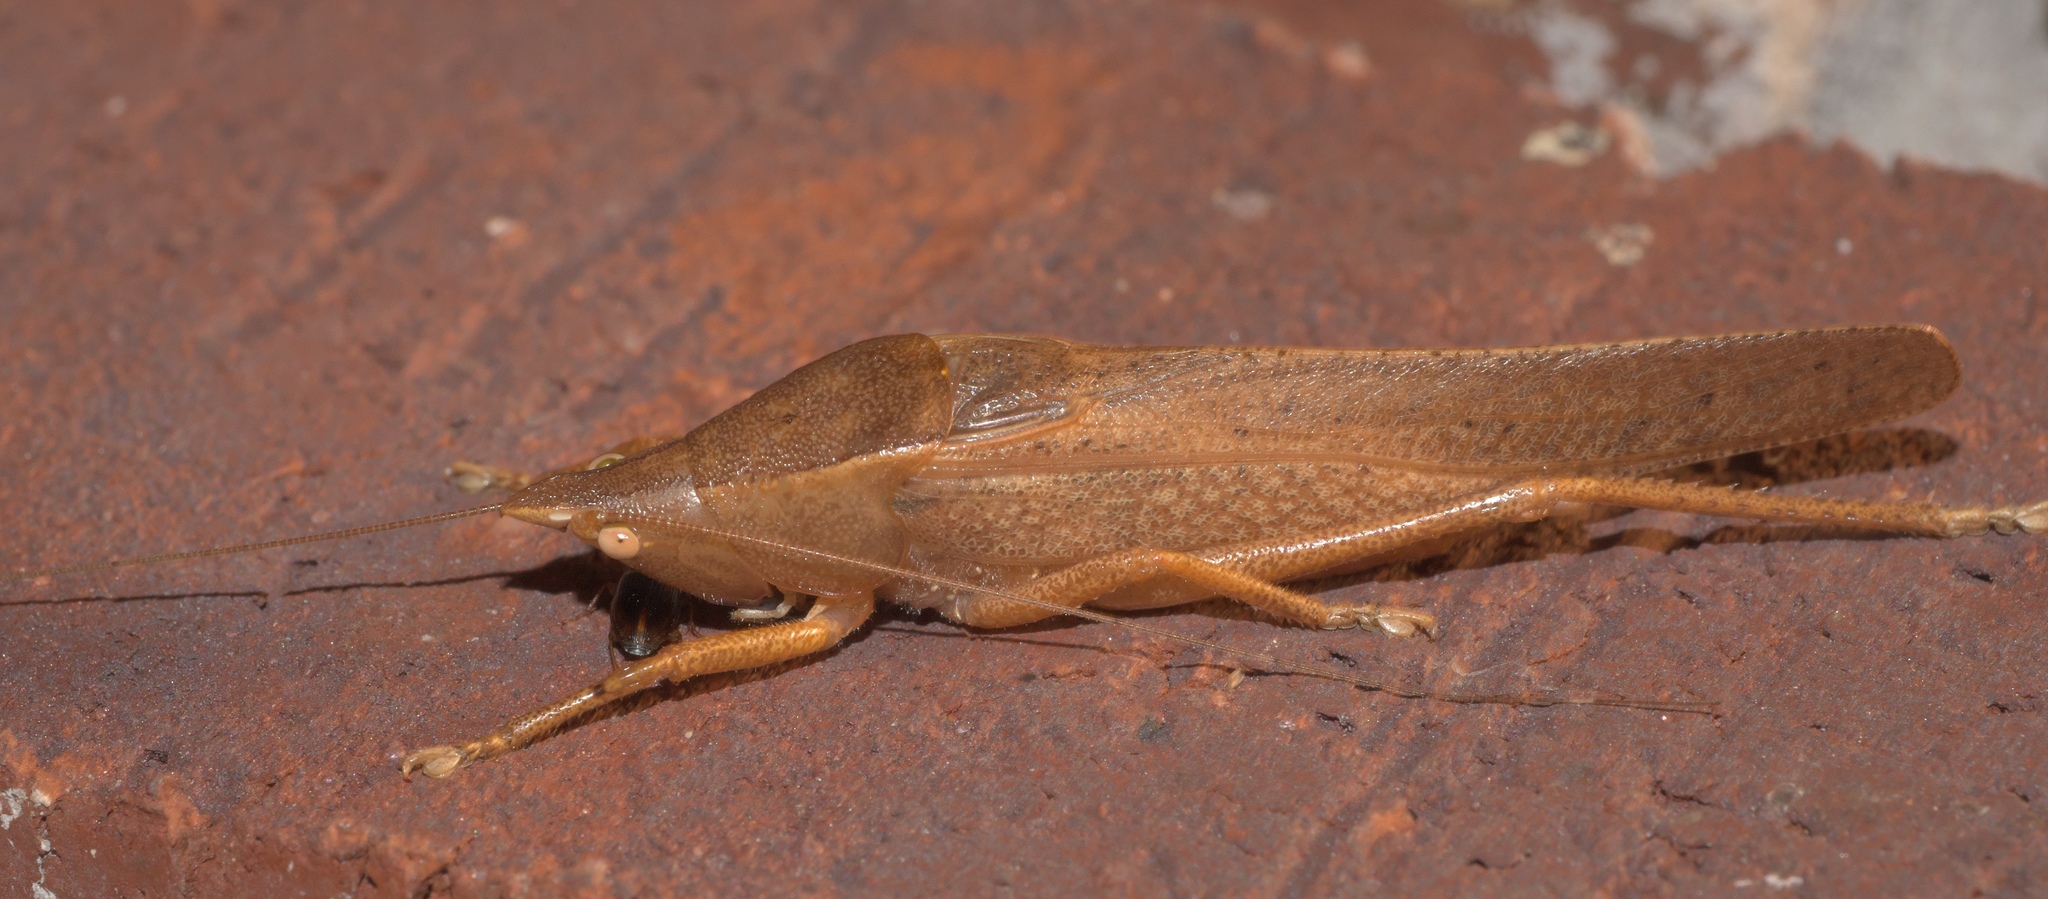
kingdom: Animalia
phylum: Arthropoda
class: Insecta
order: Orthoptera
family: Tettigoniidae
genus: Pyrgocorypha
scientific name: Pyrgocorypha uncinata
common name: Hook-faced conehead
